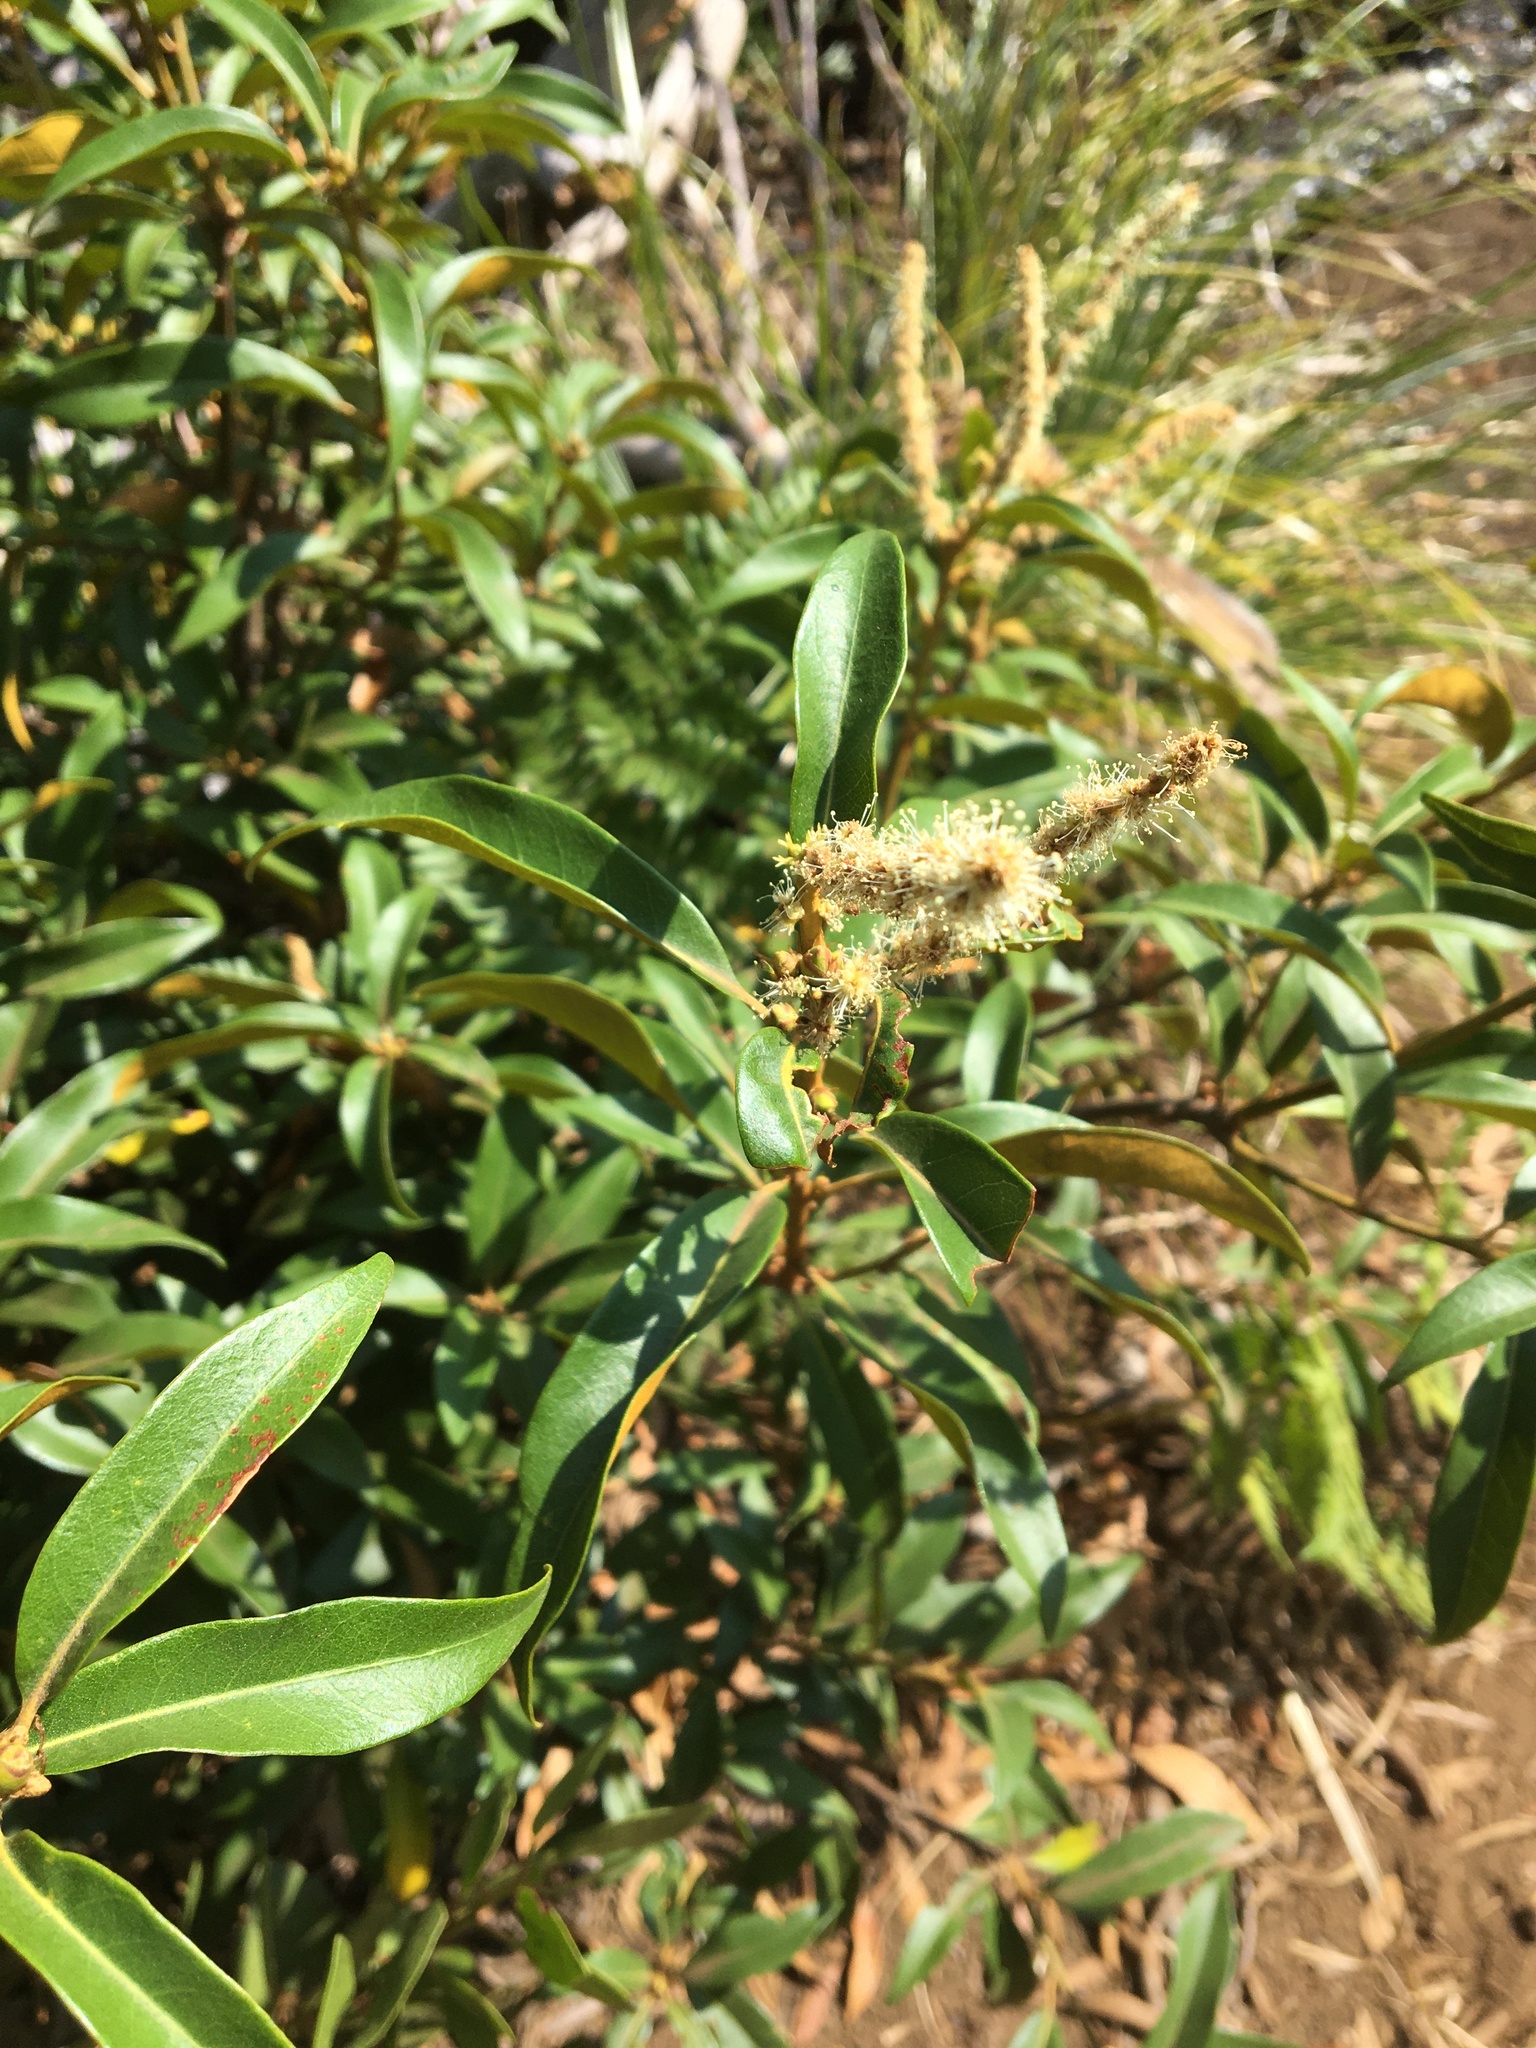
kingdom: Plantae
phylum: Tracheophyta
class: Magnoliopsida
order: Fagales
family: Fagaceae
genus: Chrysolepis
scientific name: Chrysolepis chrysophylla
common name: Giant chinquapin
